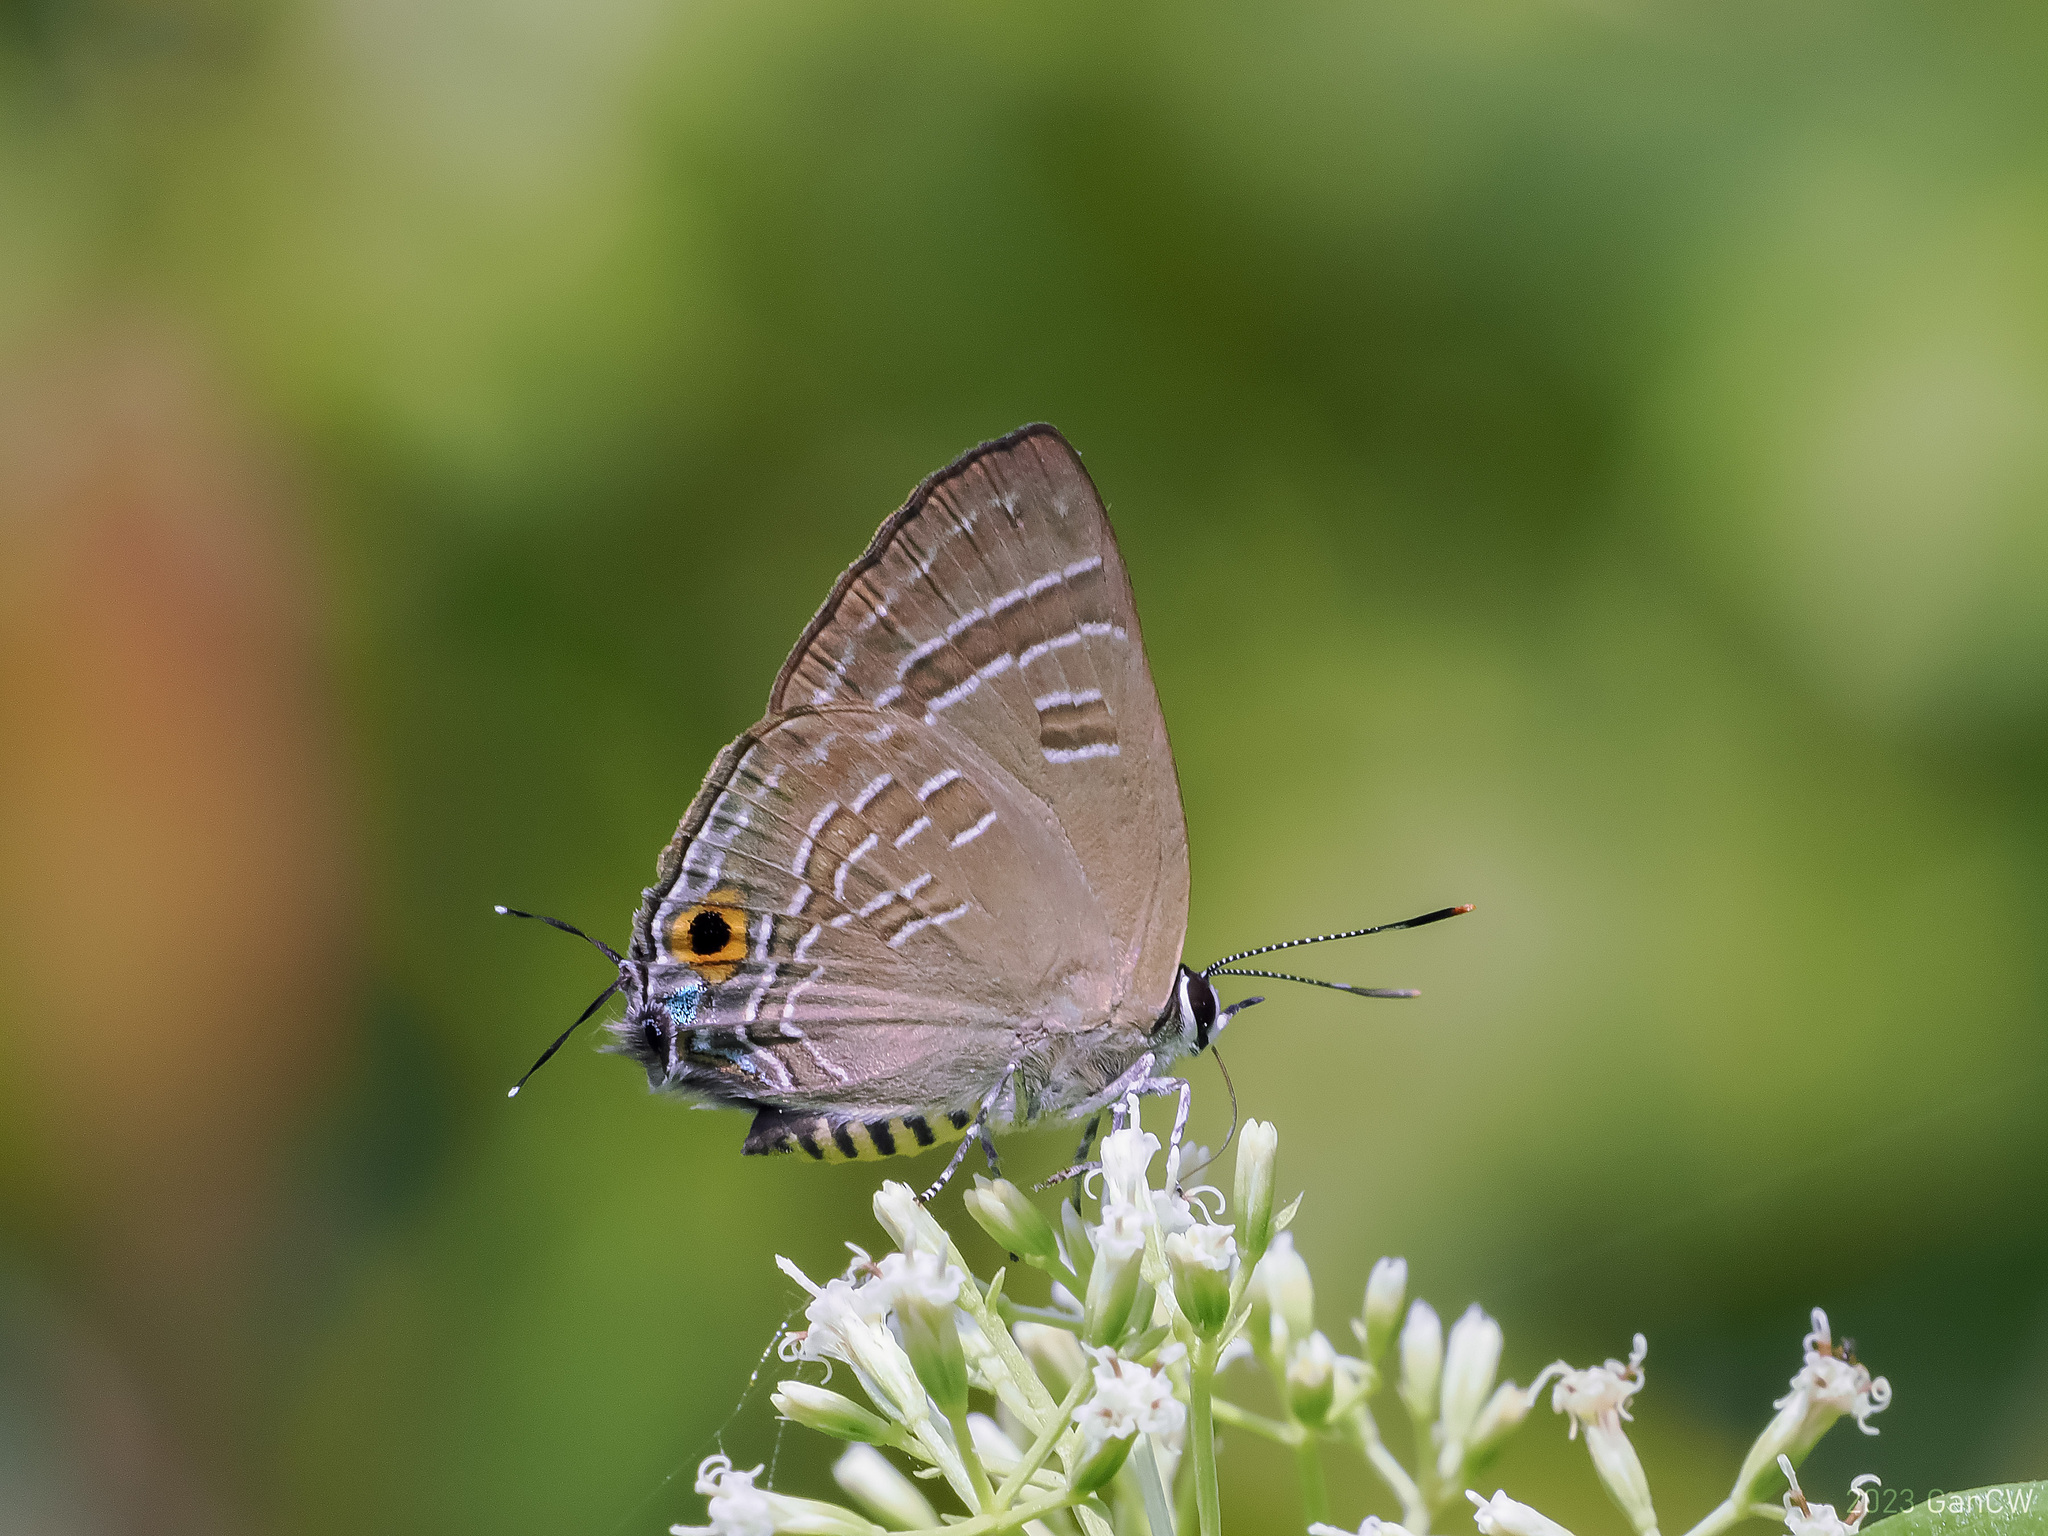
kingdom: Animalia
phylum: Arthropoda
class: Insecta
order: Lepidoptera
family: Lycaenidae
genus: Deudorix
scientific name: Deudorix epijarbas
